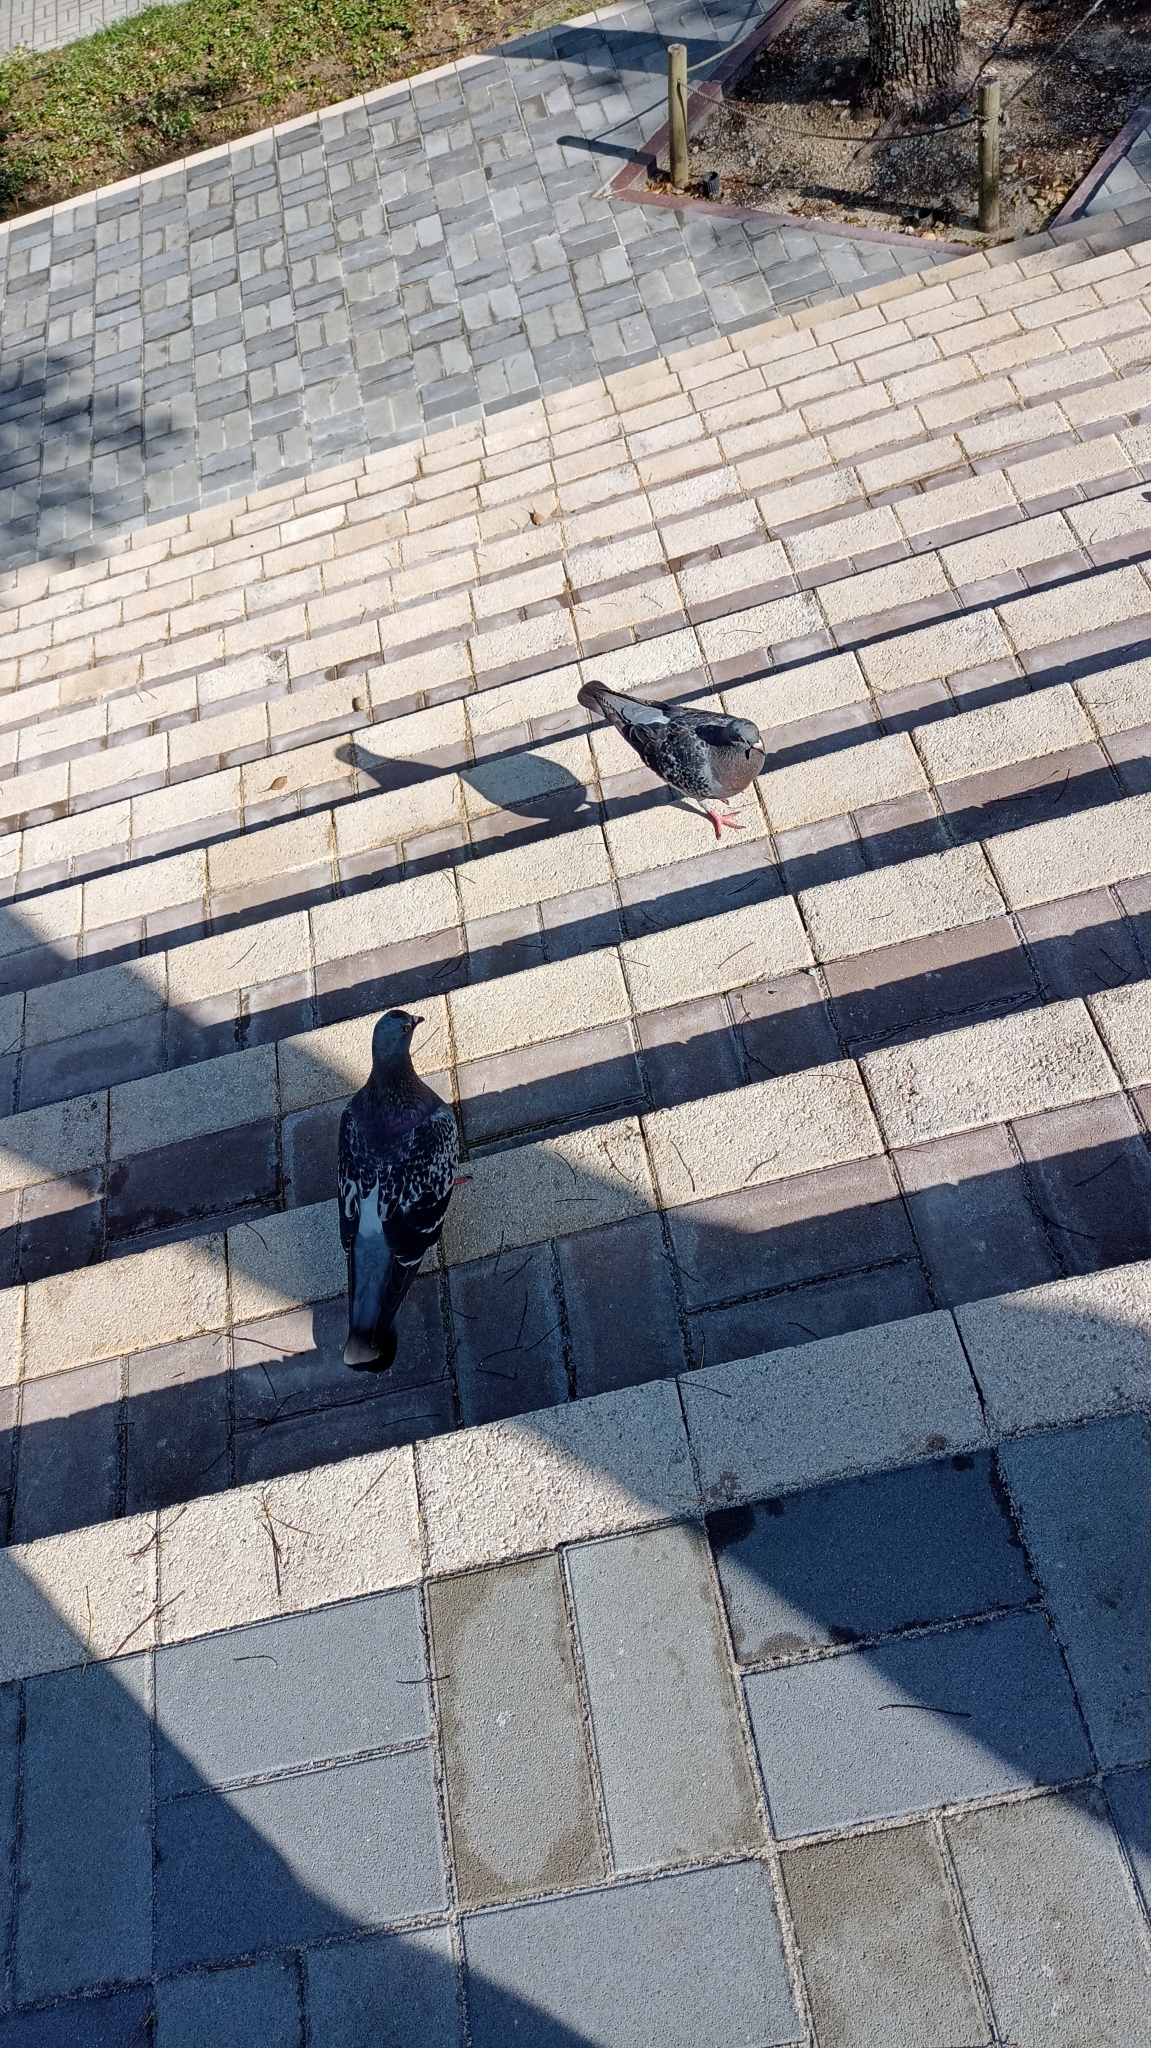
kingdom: Animalia
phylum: Chordata
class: Aves
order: Columbiformes
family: Columbidae
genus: Columba
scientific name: Columba livia
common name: Rock pigeon
